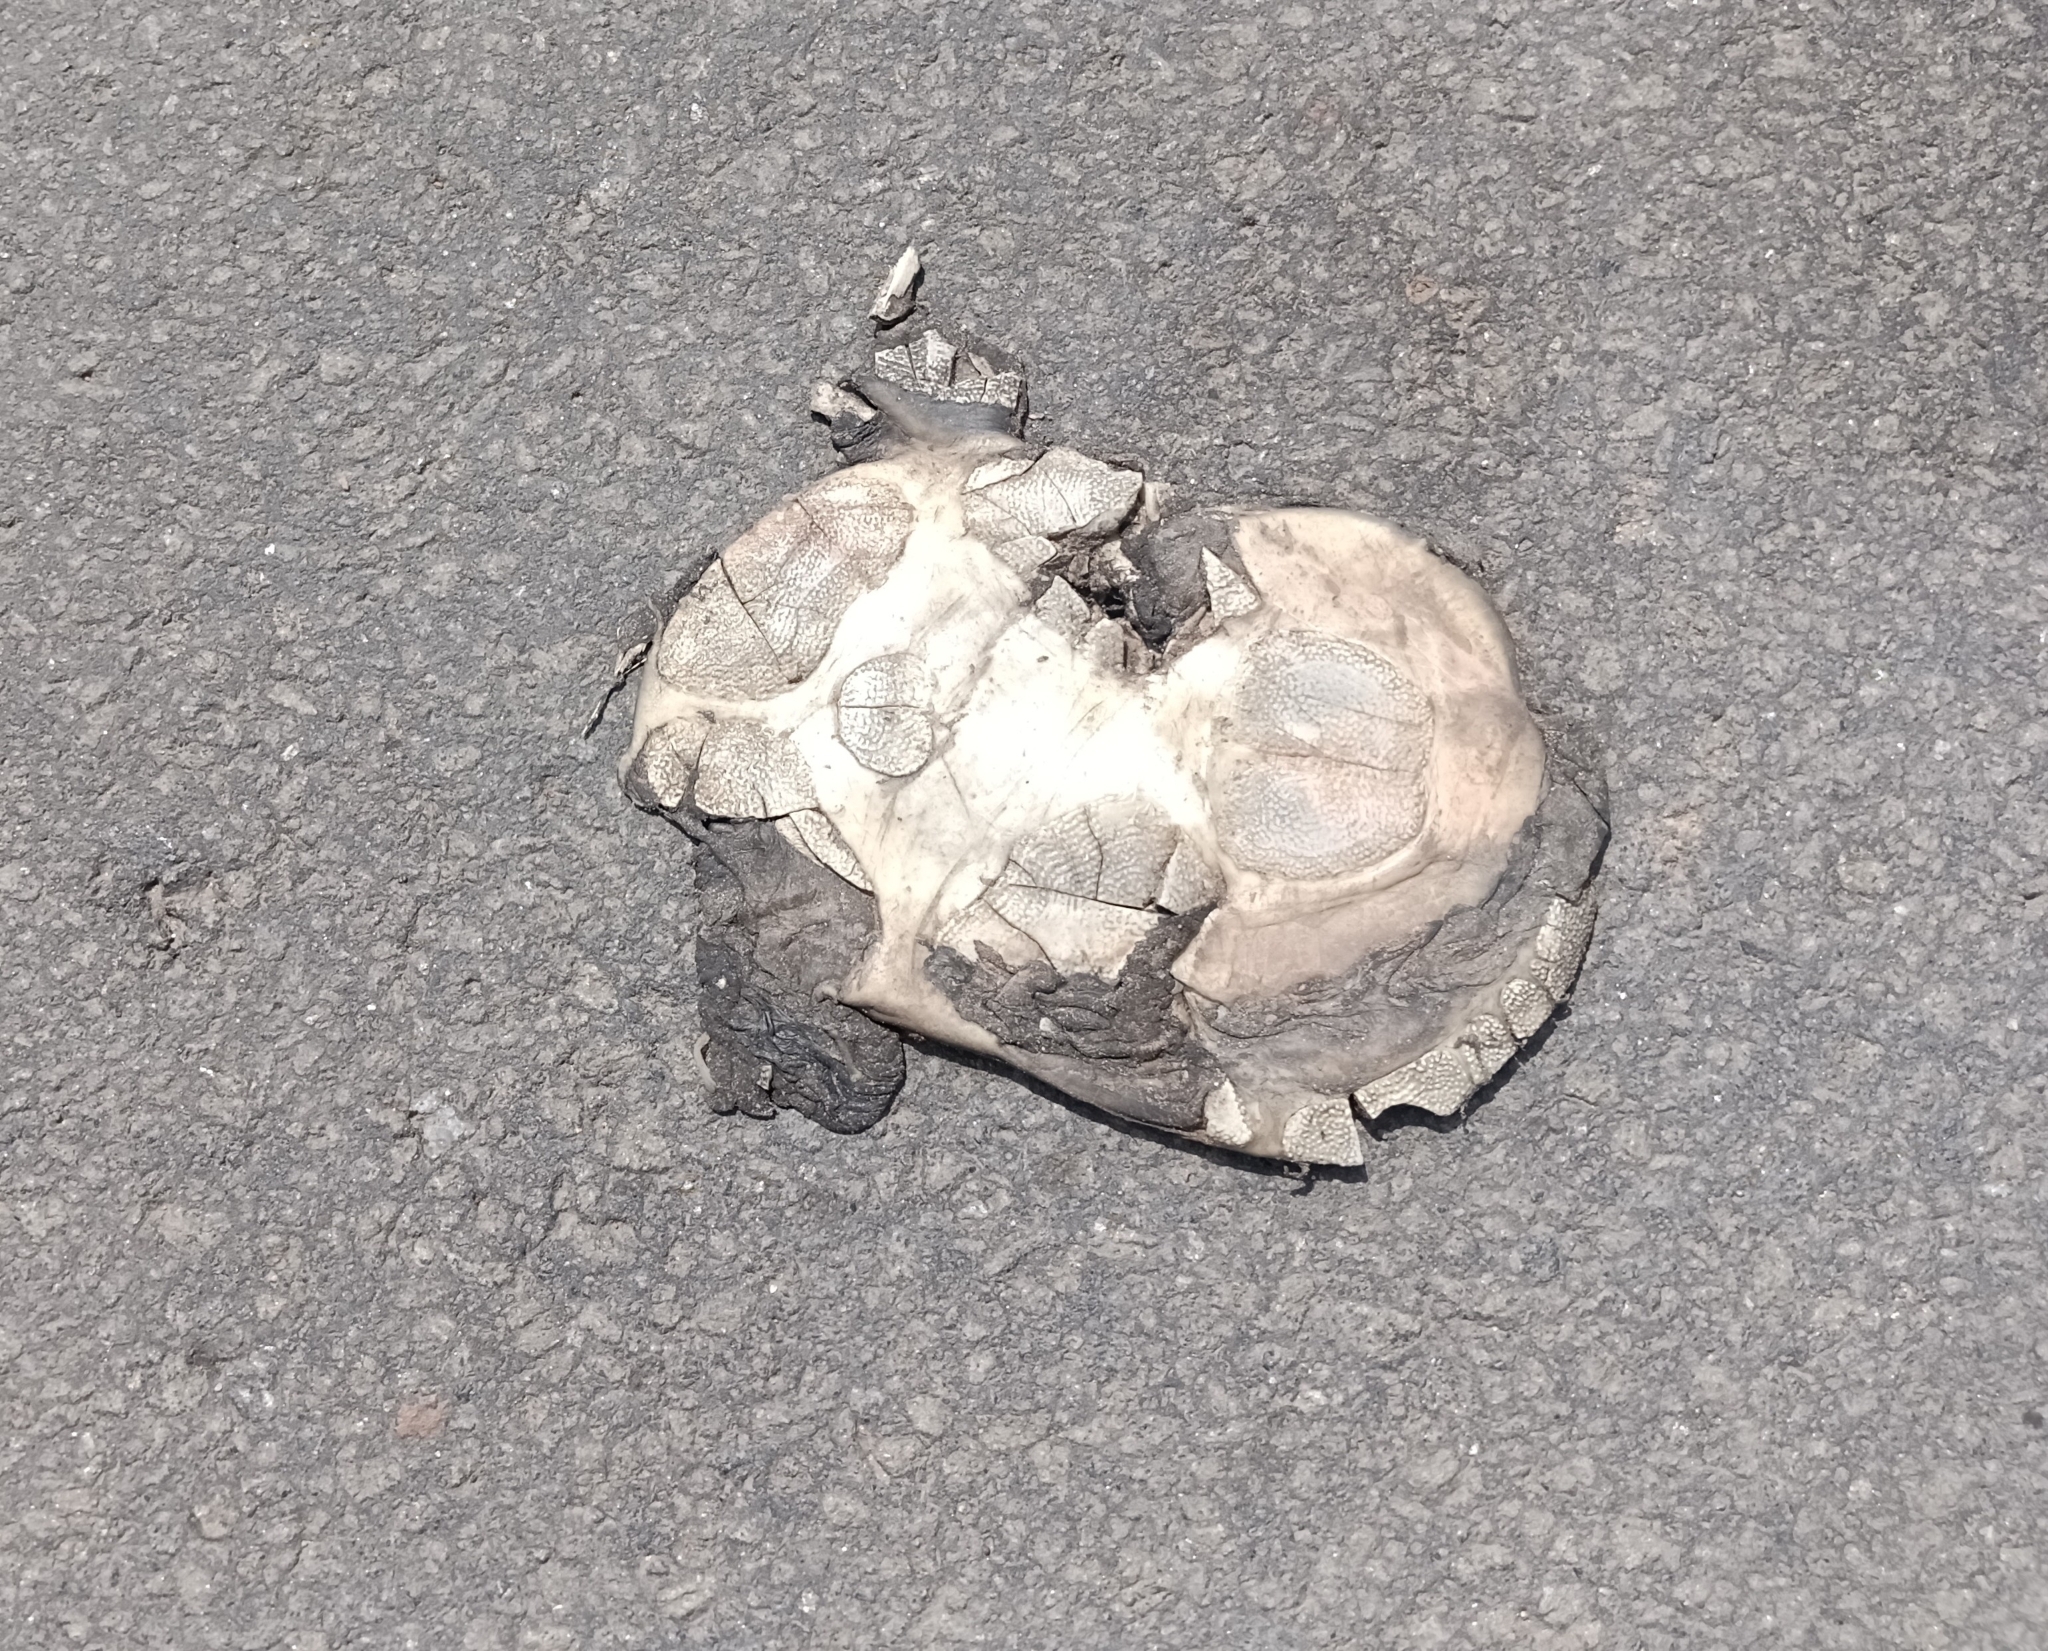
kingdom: Animalia
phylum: Chordata
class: Testudines
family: Trionychidae
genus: Lissemys
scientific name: Lissemys punctata
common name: Indian flap-shelled turtle
